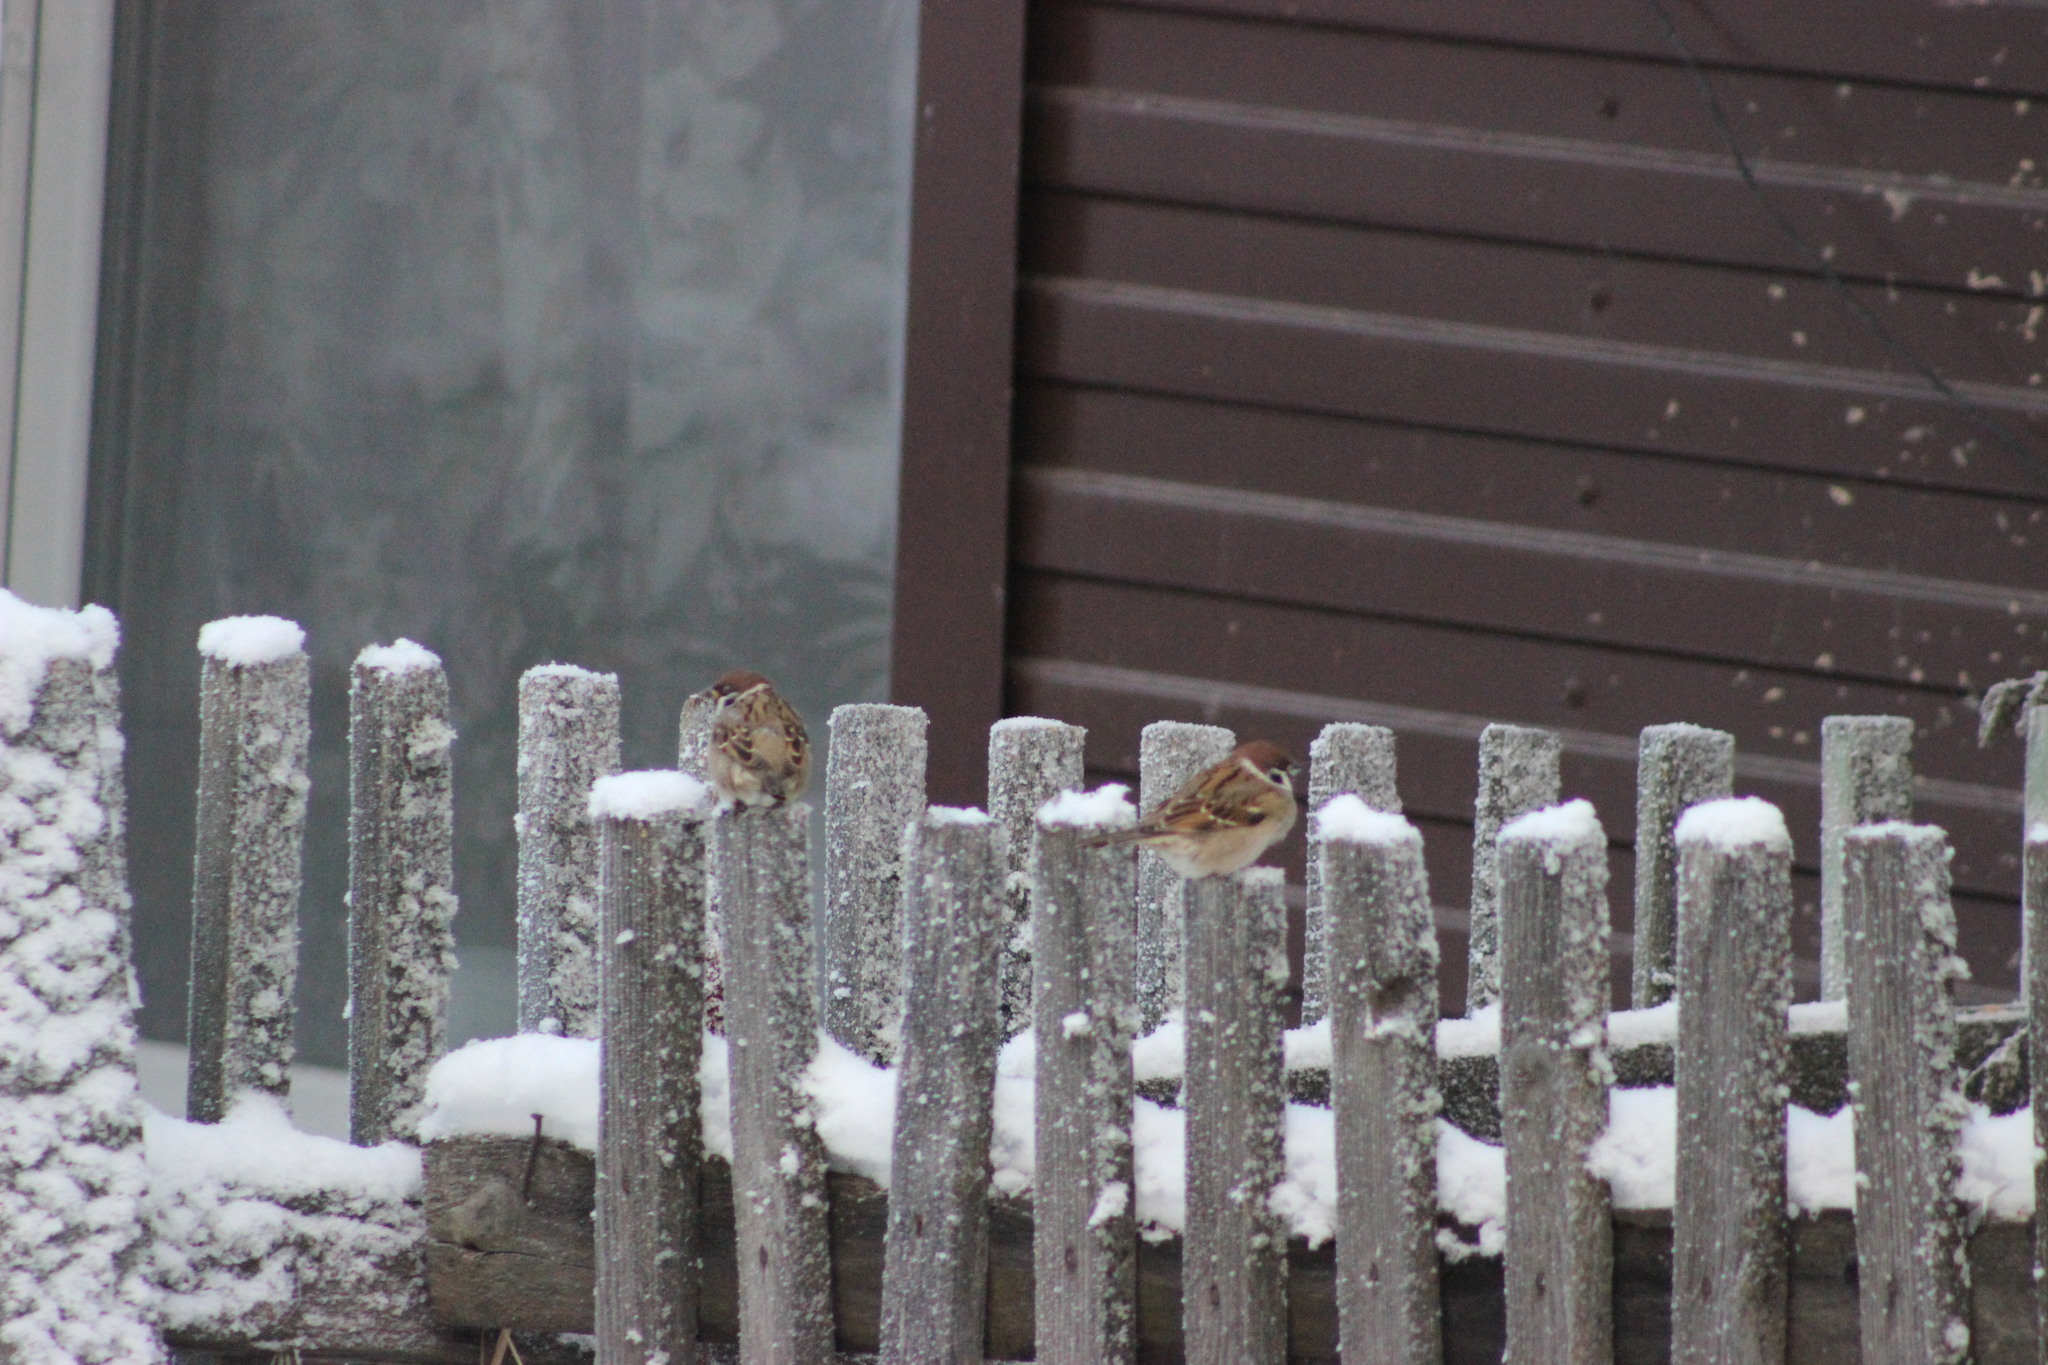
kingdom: Animalia
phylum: Chordata
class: Aves
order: Passeriformes
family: Passeridae
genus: Passer
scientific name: Passer montanus
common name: Eurasian tree sparrow
